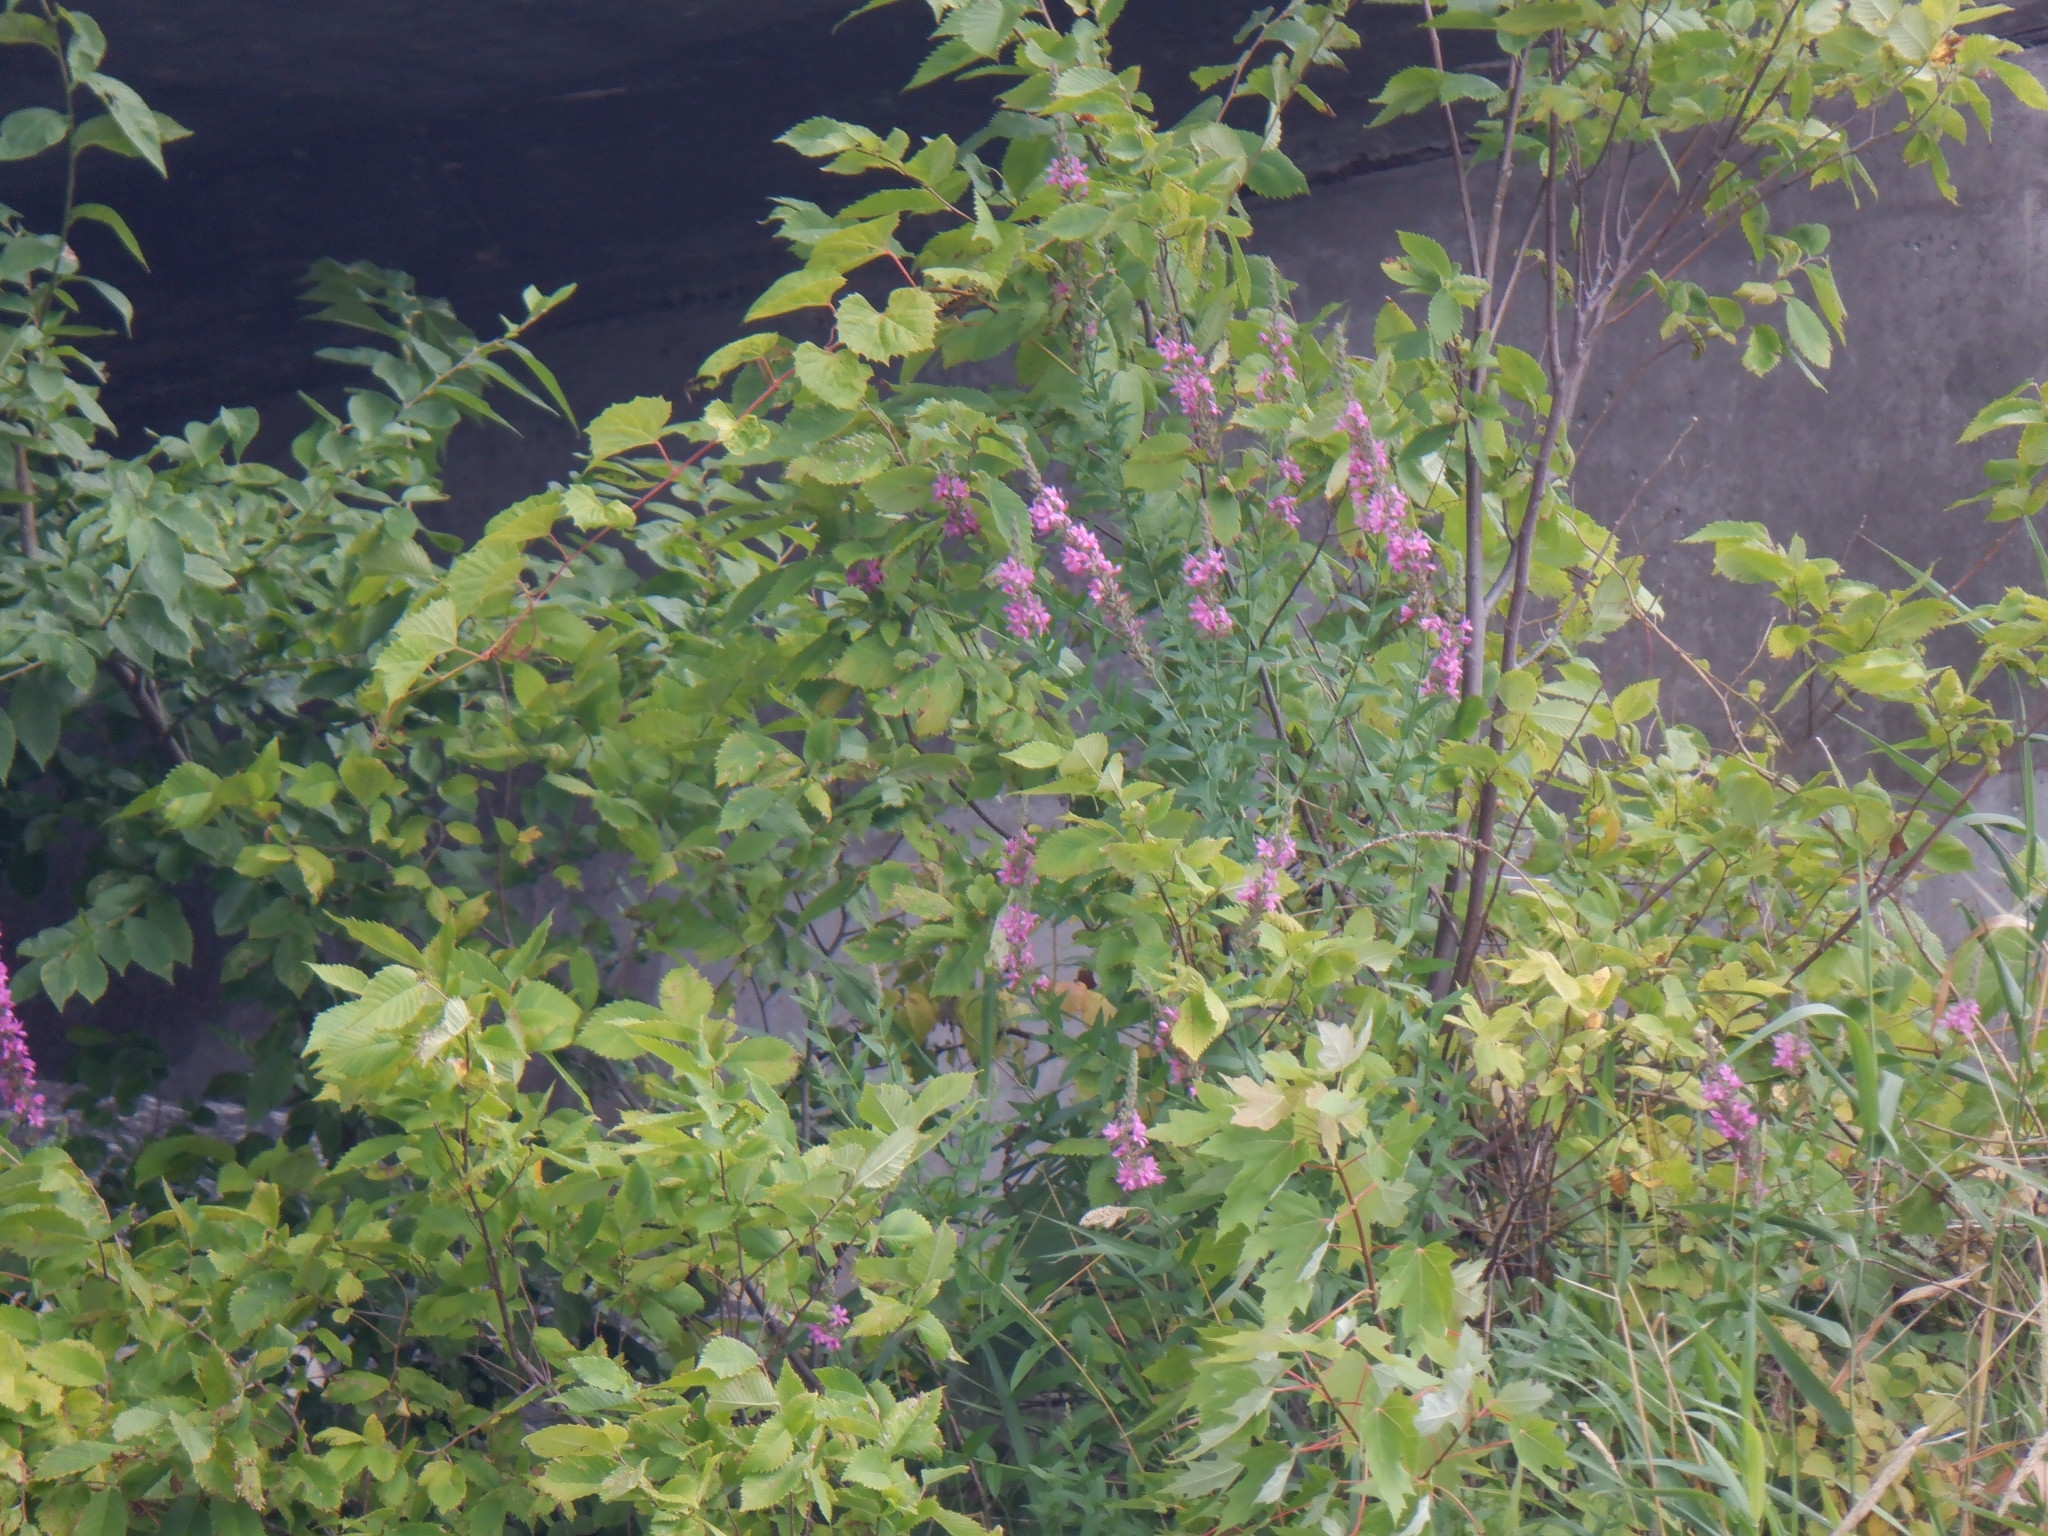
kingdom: Plantae
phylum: Tracheophyta
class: Magnoliopsida
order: Myrtales
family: Lythraceae
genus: Lythrum
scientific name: Lythrum salicaria
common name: Purple loosestrife
